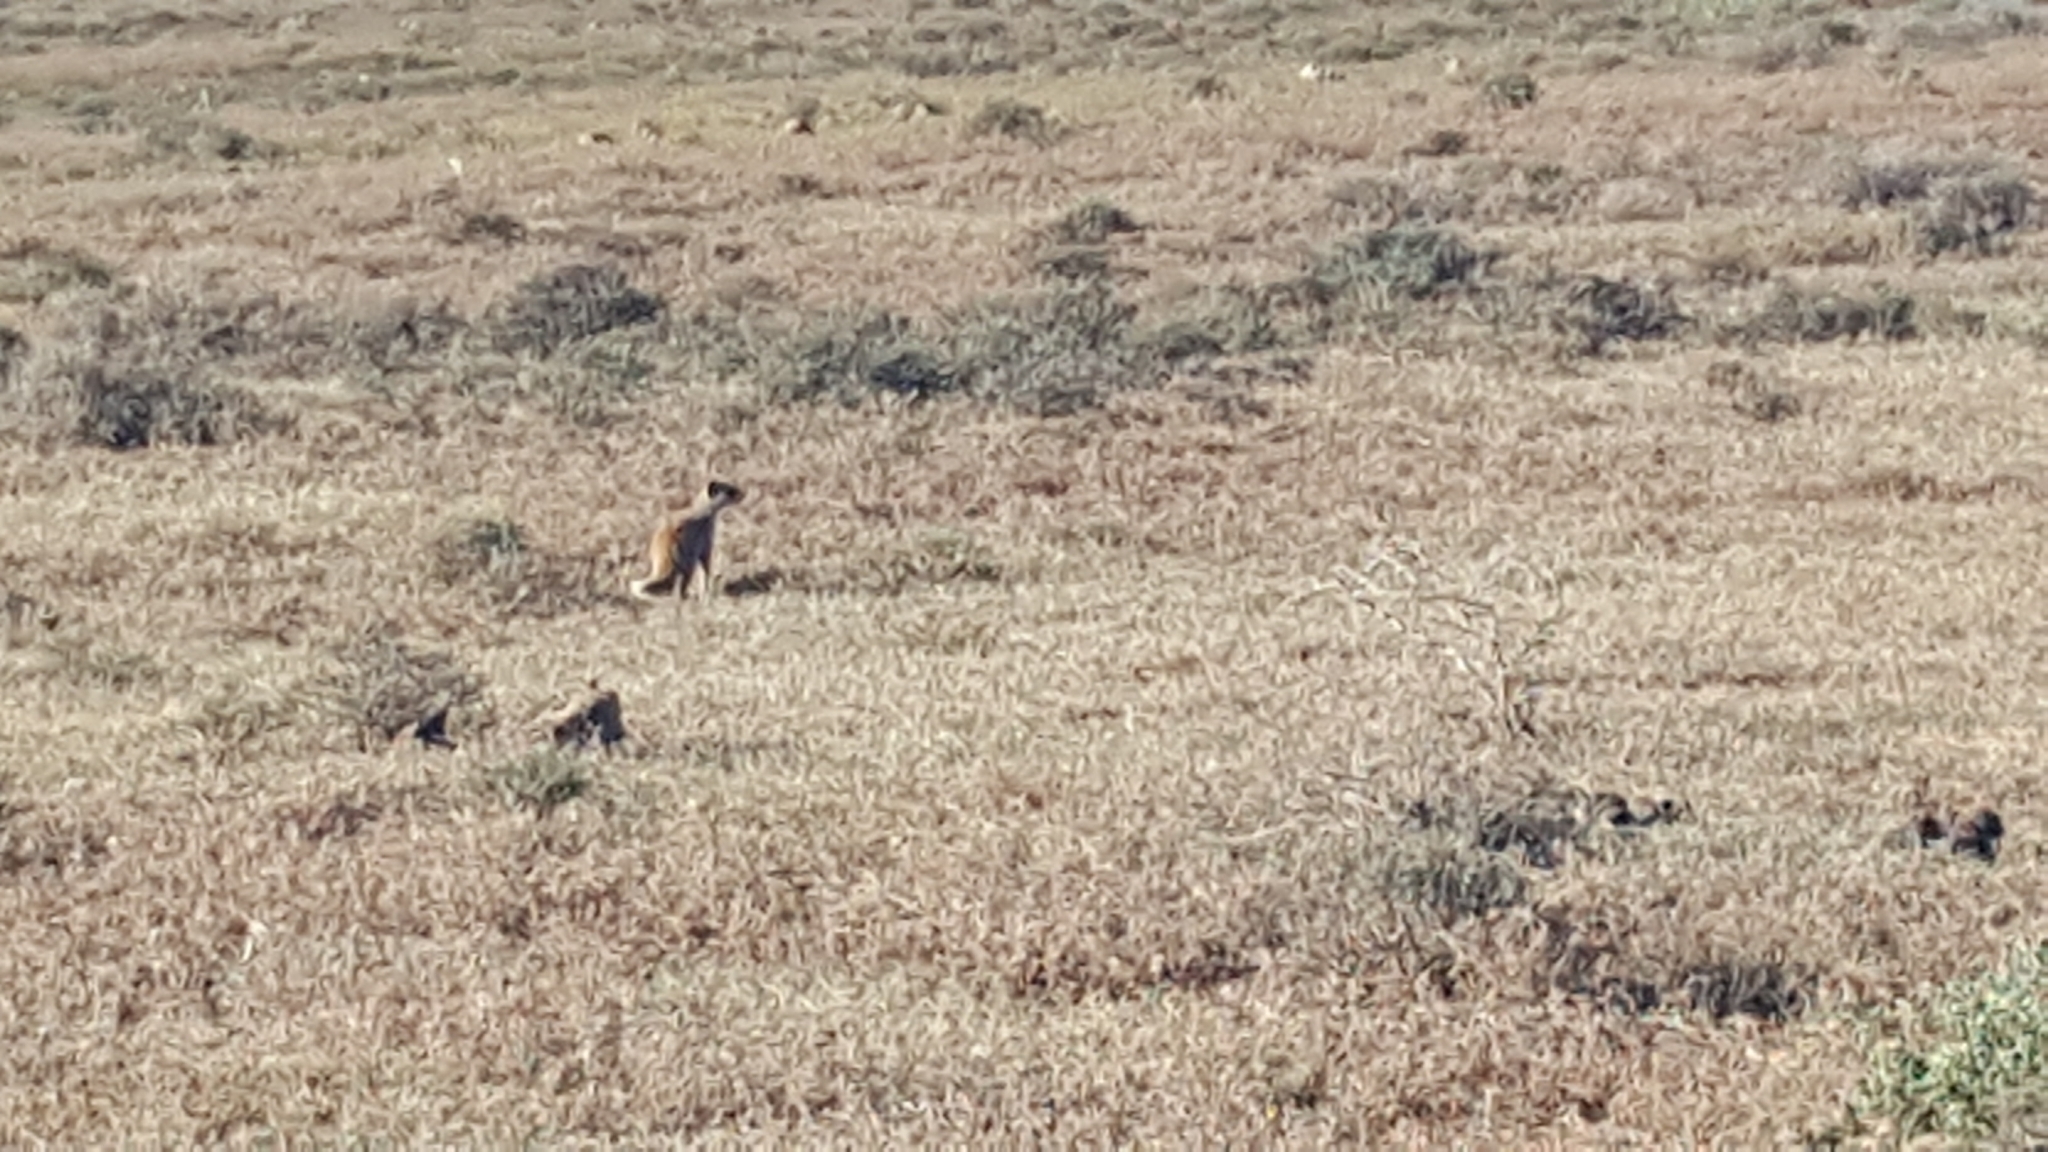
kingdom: Animalia
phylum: Chordata
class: Mammalia
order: Carnivora
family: Herpestidae
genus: Cynictis
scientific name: Cynictis penicillata
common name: Yellow mongoose
